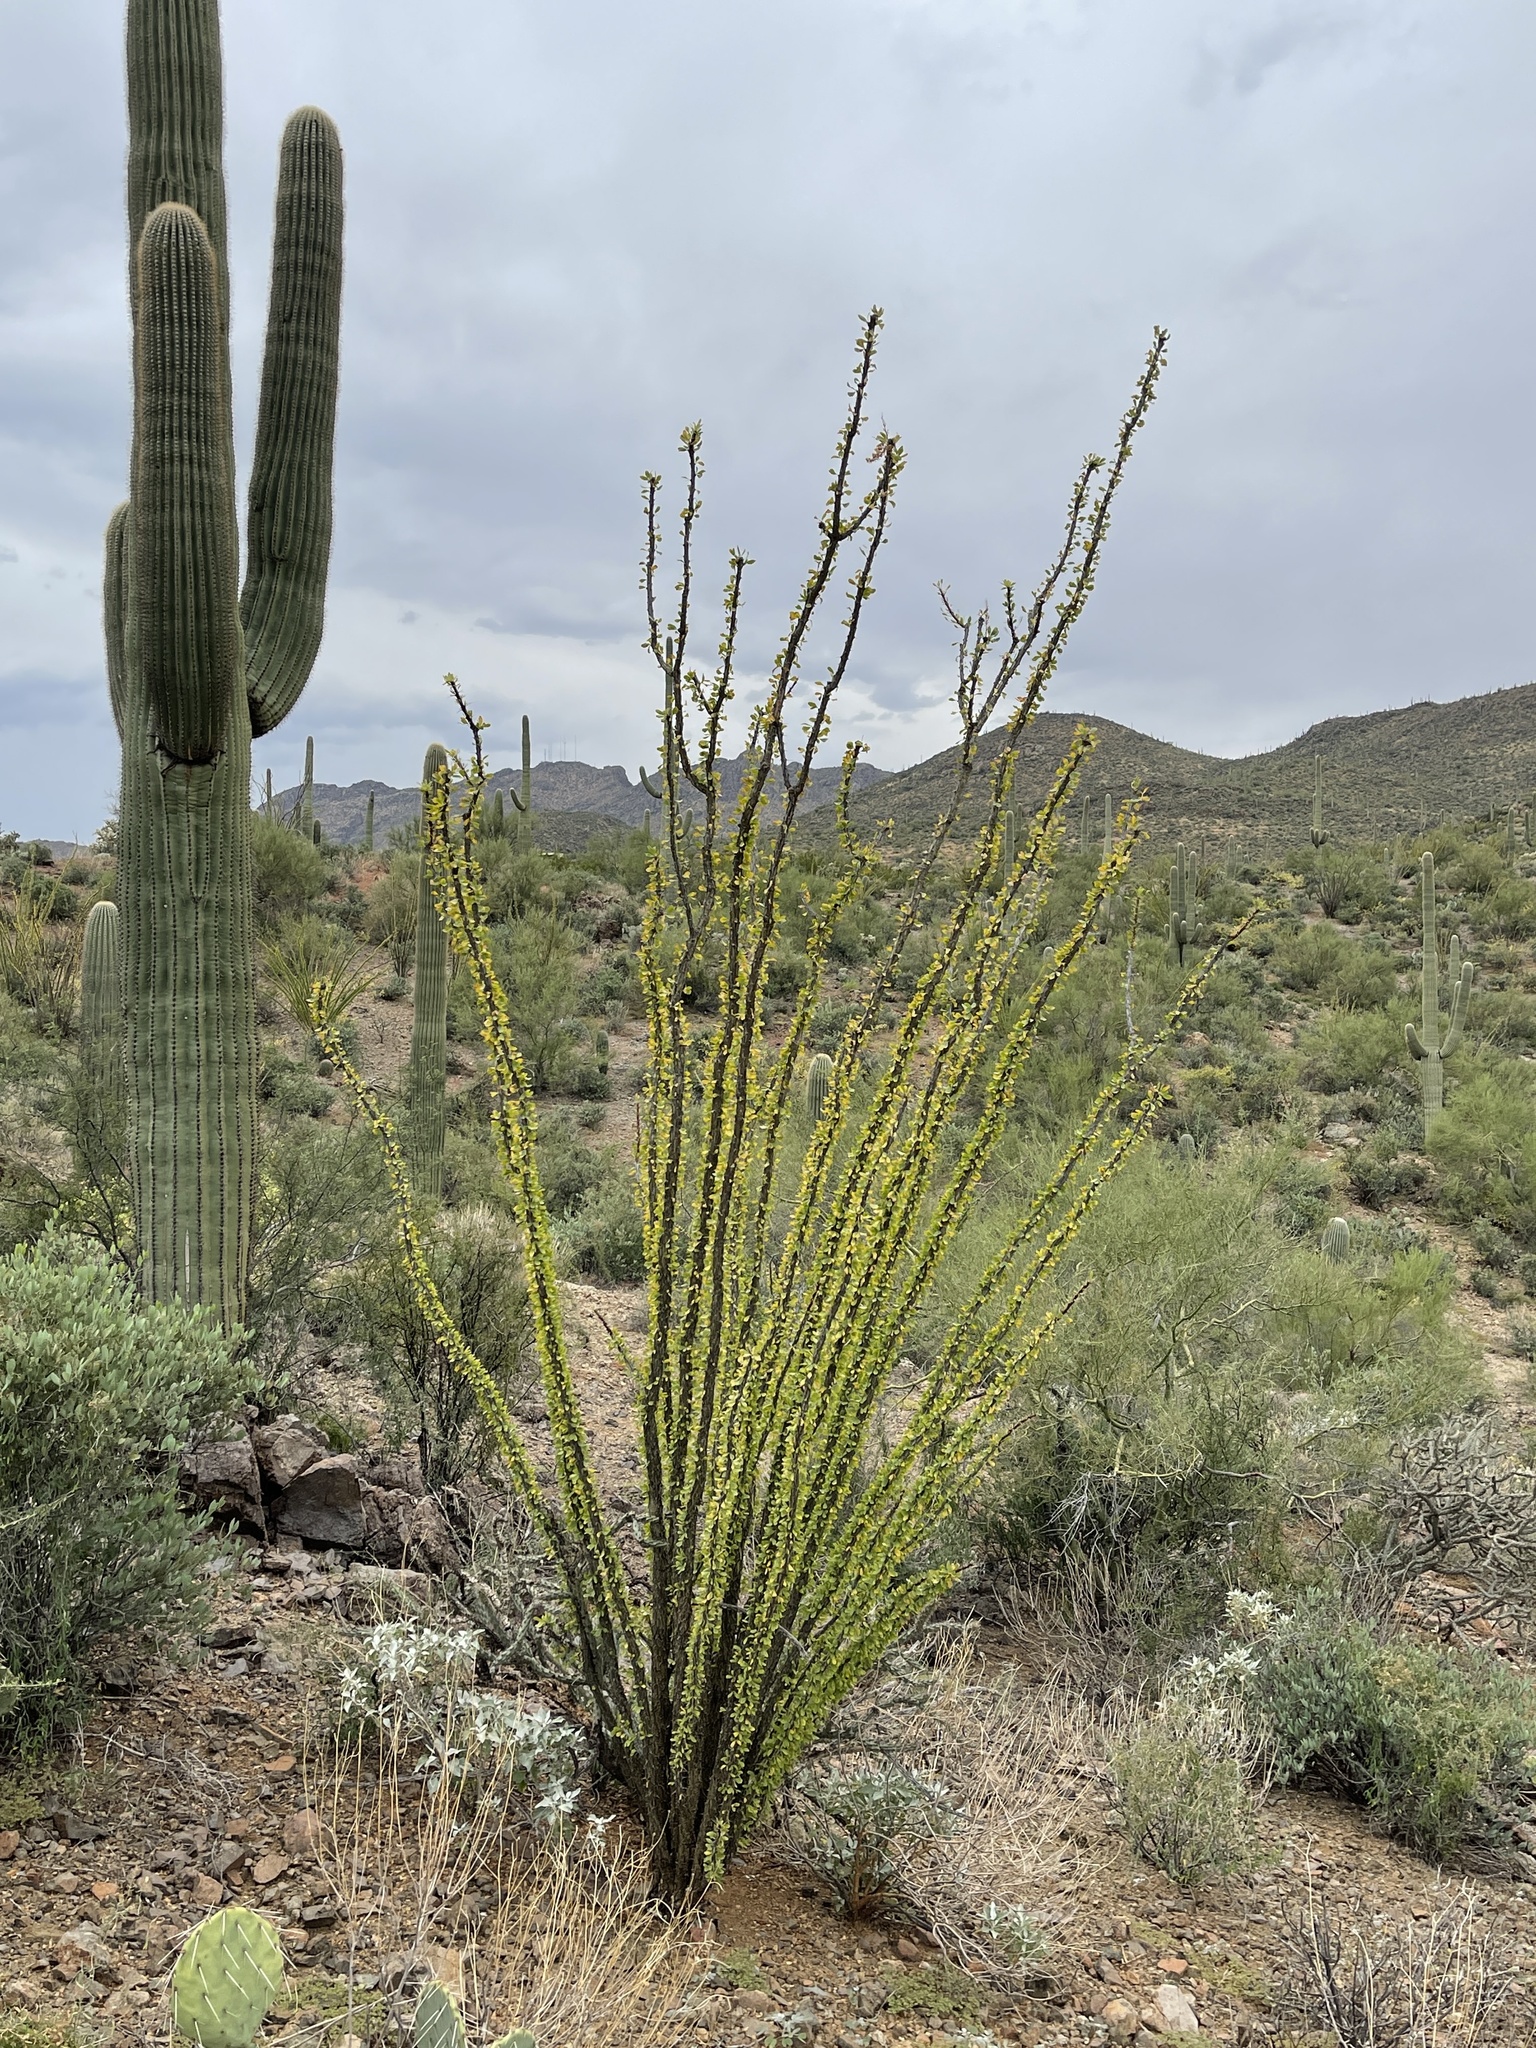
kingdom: Plantae
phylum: Tracheophyta
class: Magnoliopsida
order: Ericales
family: Fouquieriaceae
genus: Fouquieria
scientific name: Fouquieria splendens
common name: Vine-cactus
